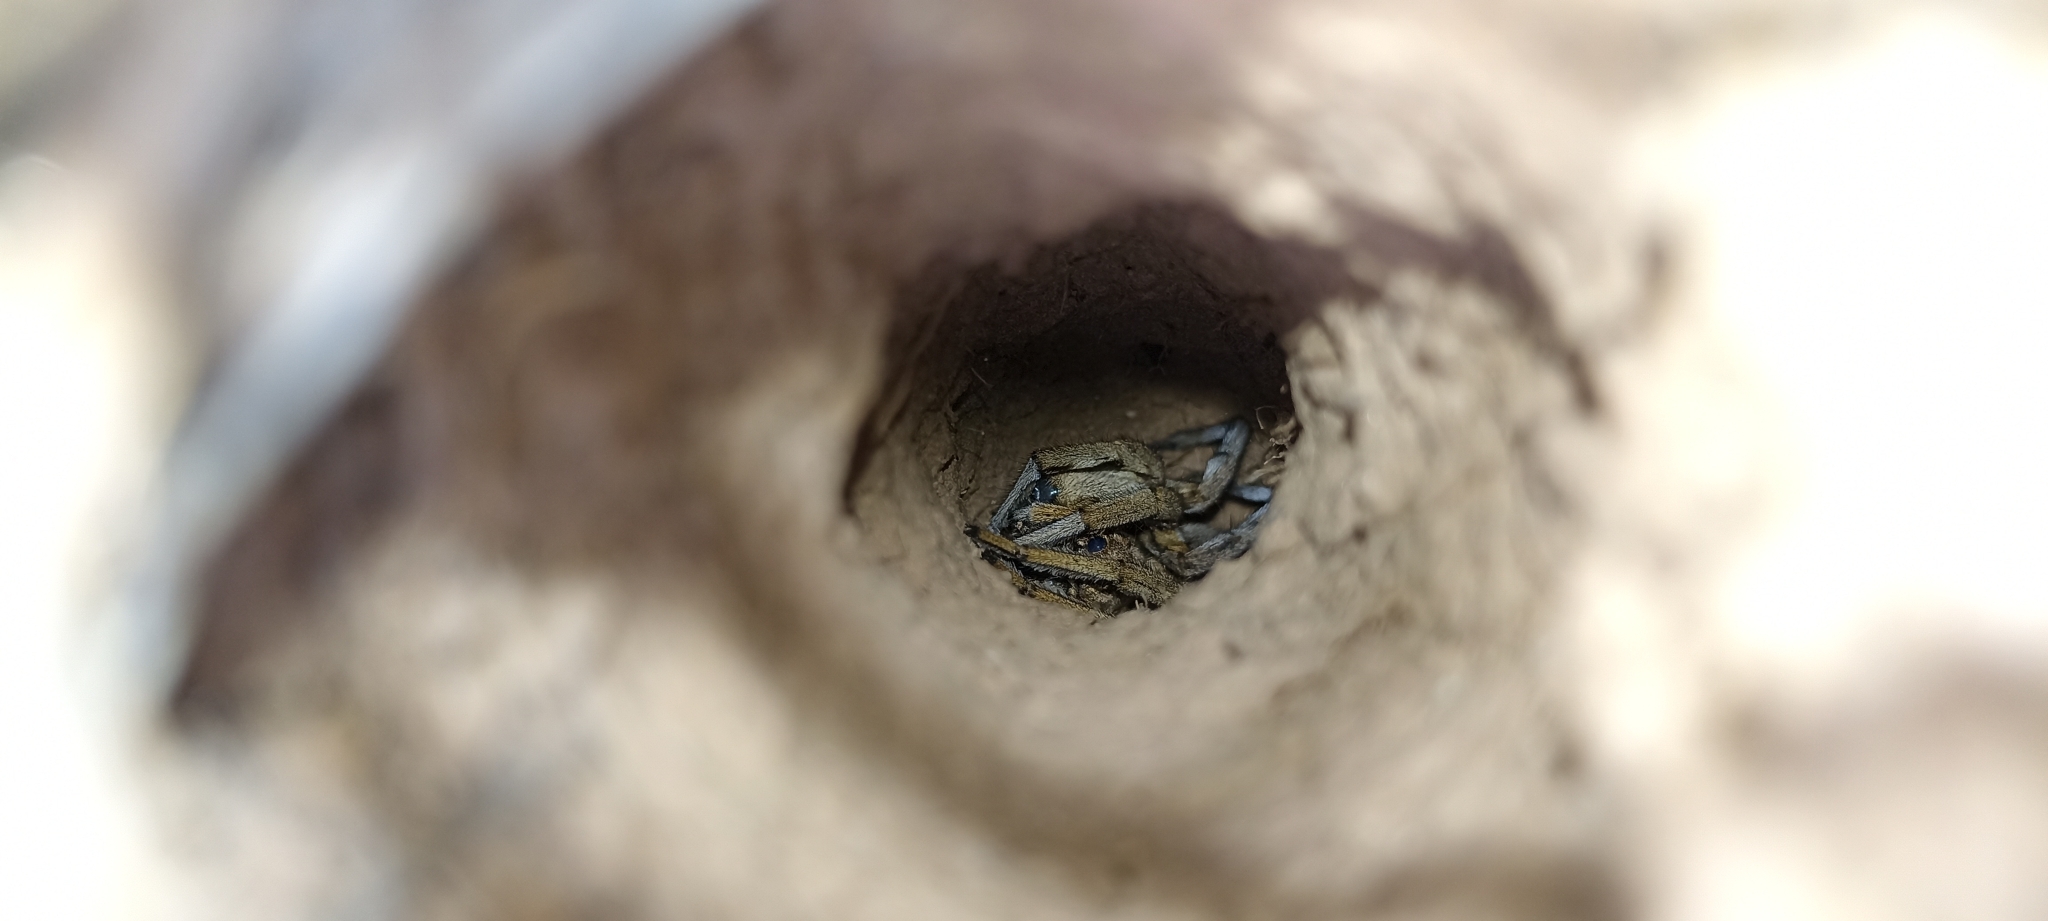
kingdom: Animalia
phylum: Arthropoda
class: Arachnida
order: Araneae
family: Lycosidae
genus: Lycosa
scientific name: Lycosa tarantula
